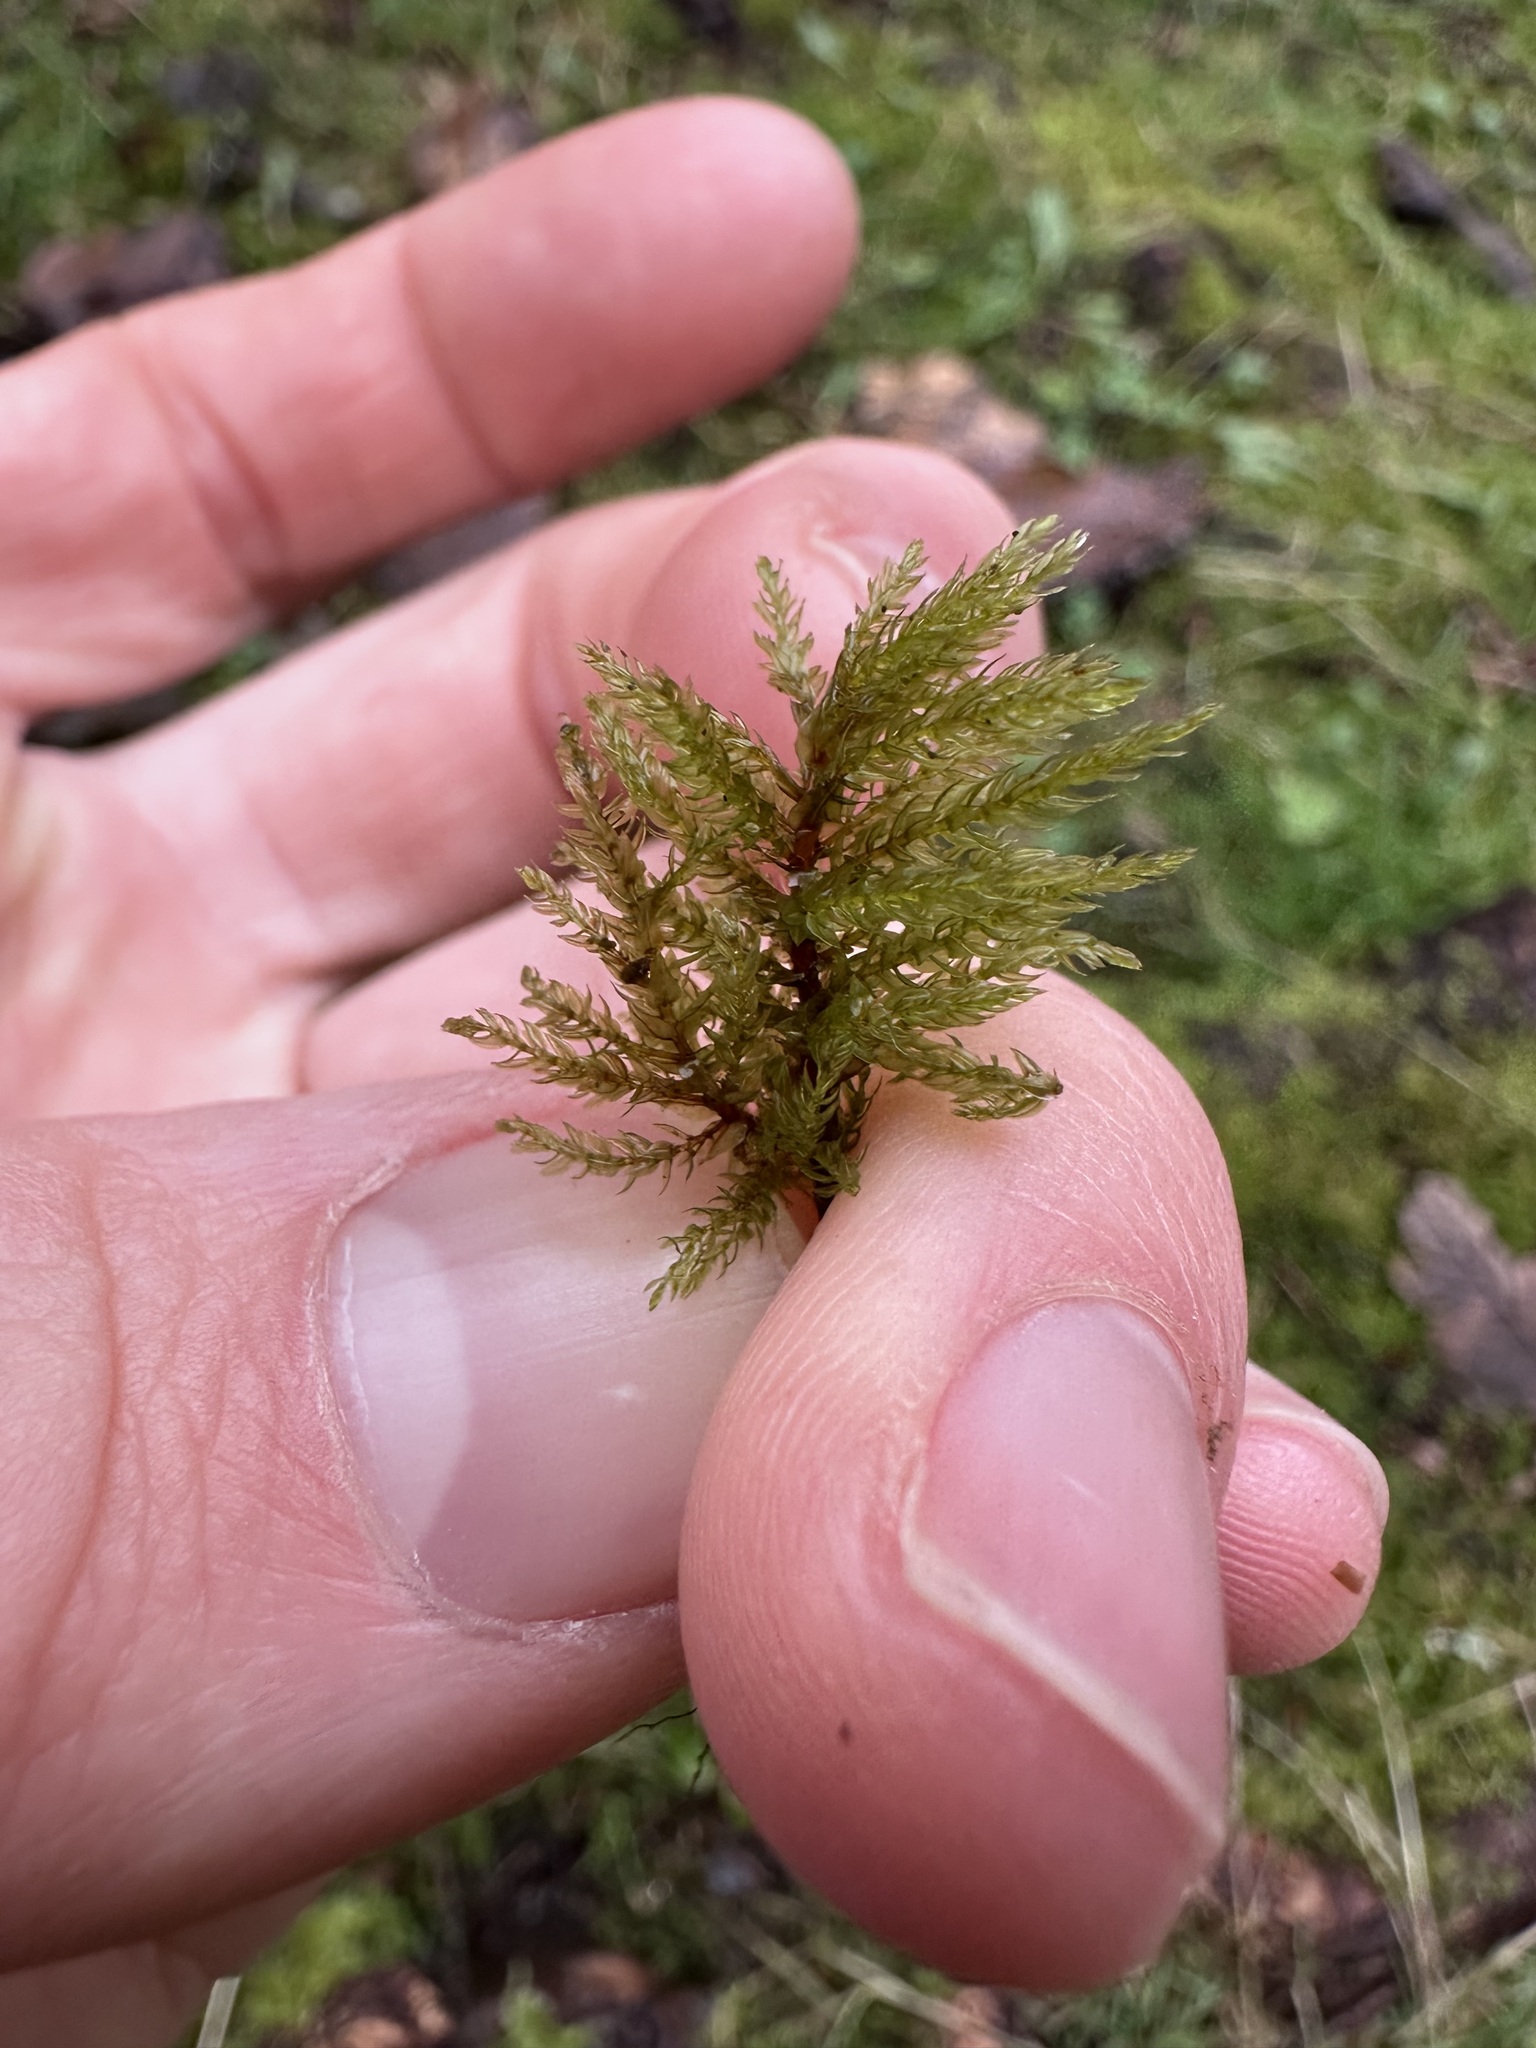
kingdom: Plantae
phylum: Bryophyta
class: Bryopsida
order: Bryales
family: Mniaceae
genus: Leucolepis
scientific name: Leucolepis acanthoneura
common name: Leucolepis umbrella moss
